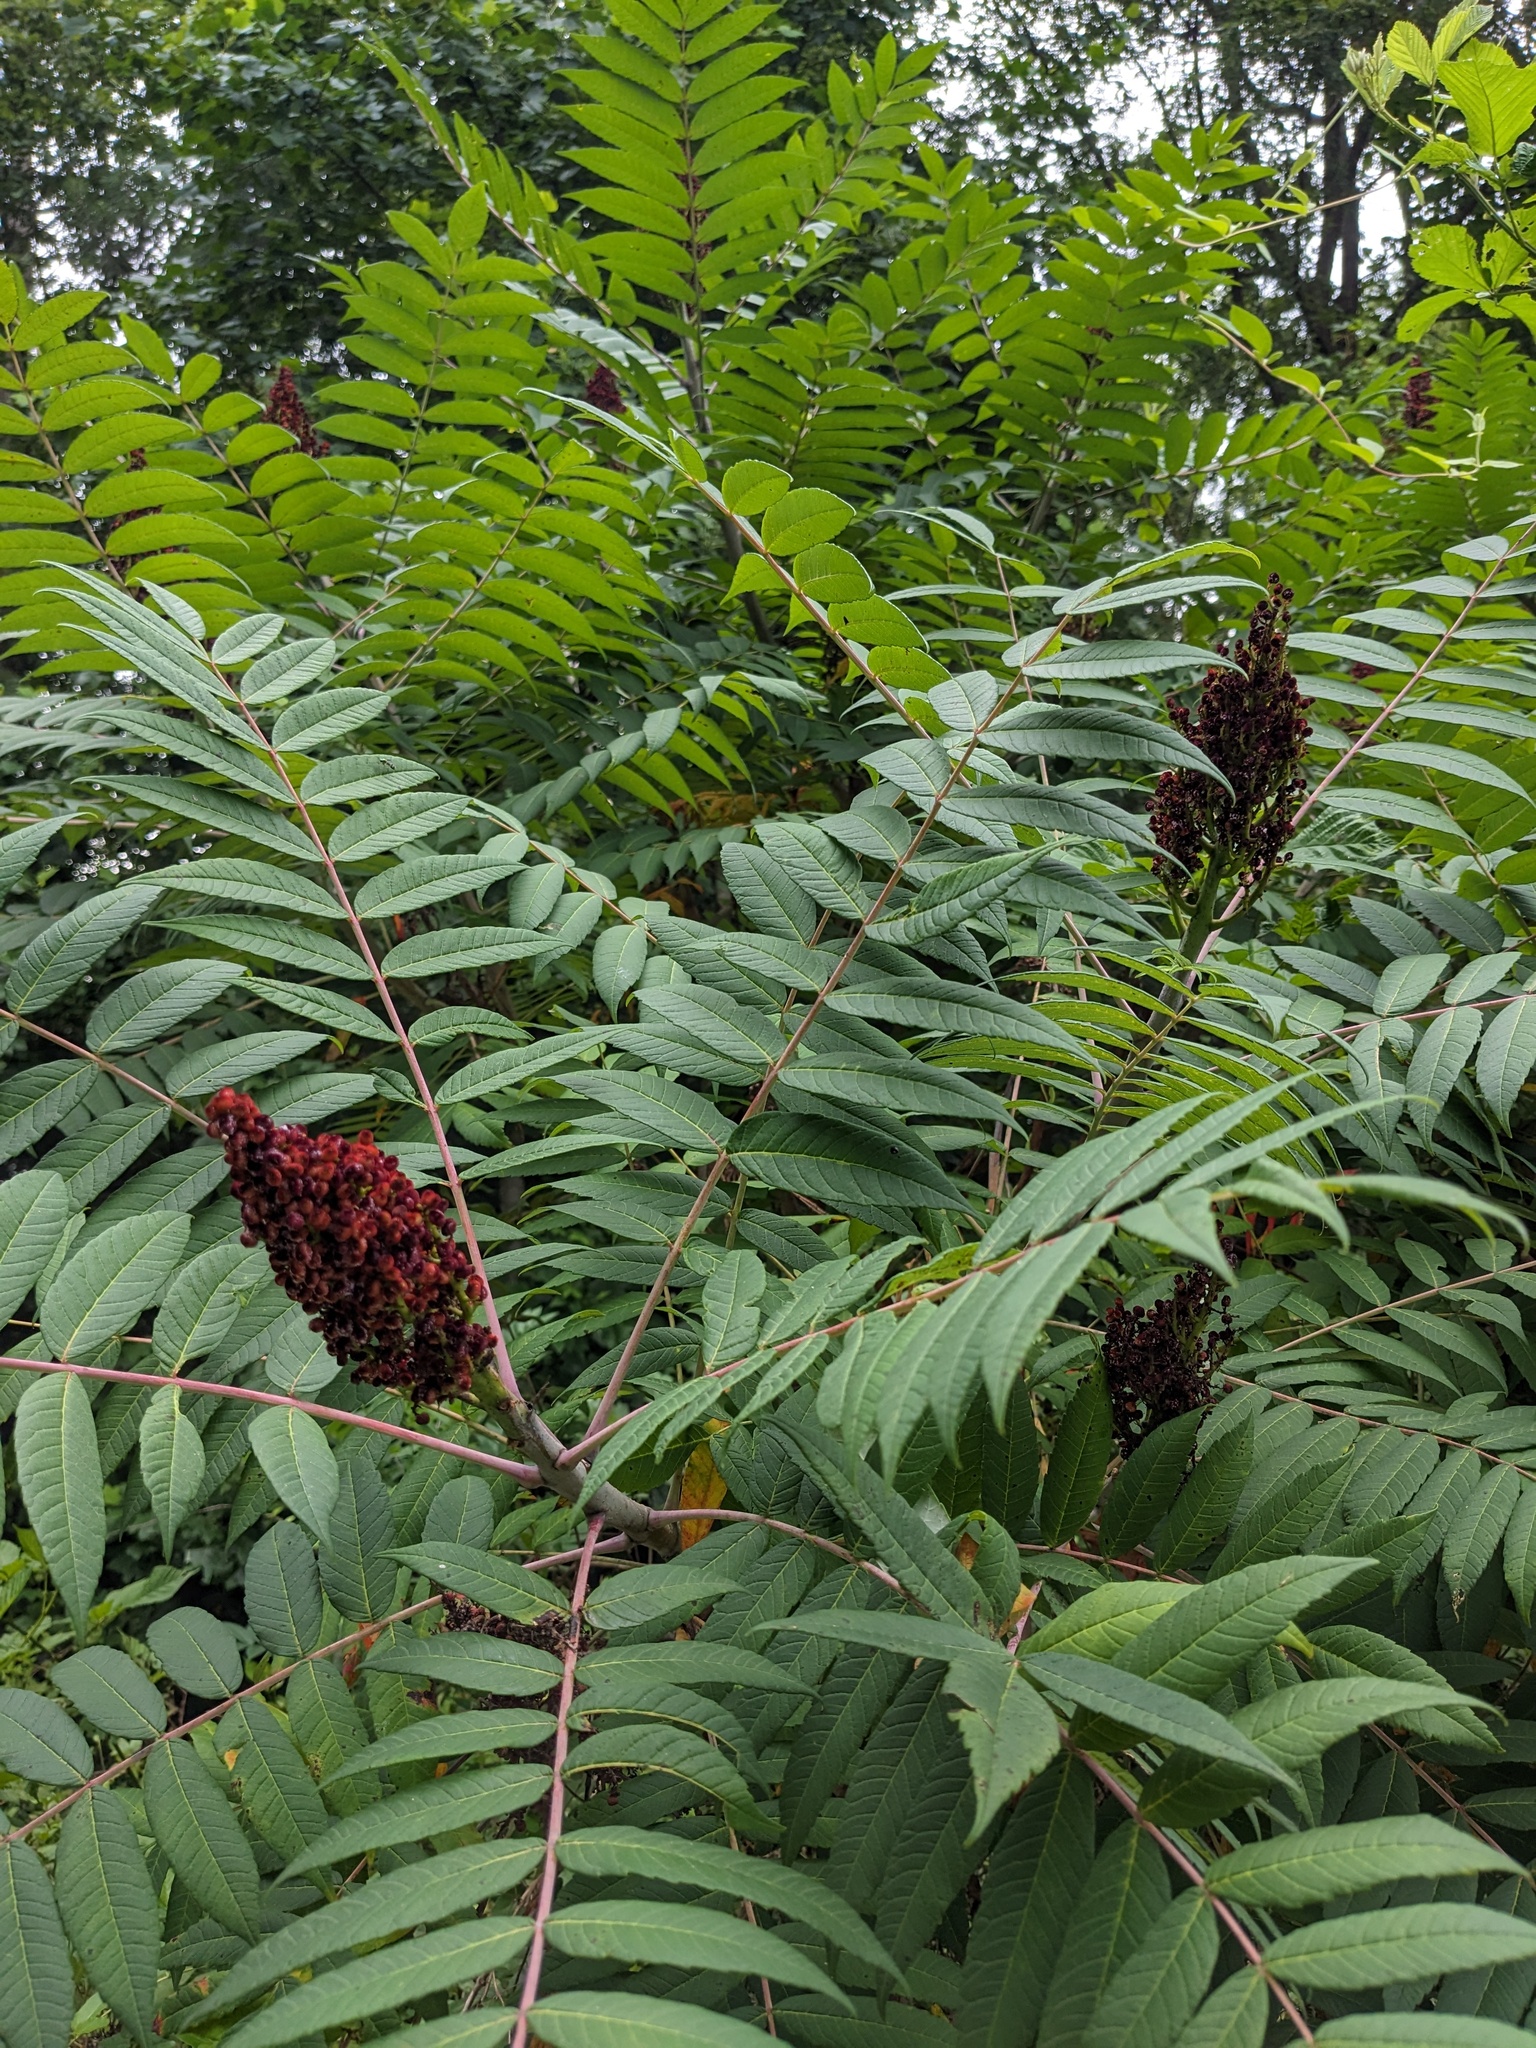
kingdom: Plantae
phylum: Tracheophyta
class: Magnoliopsida
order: Sapindales
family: Anacardiaceae
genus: Rhus
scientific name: Rhus glabra
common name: Scarlet sumac
